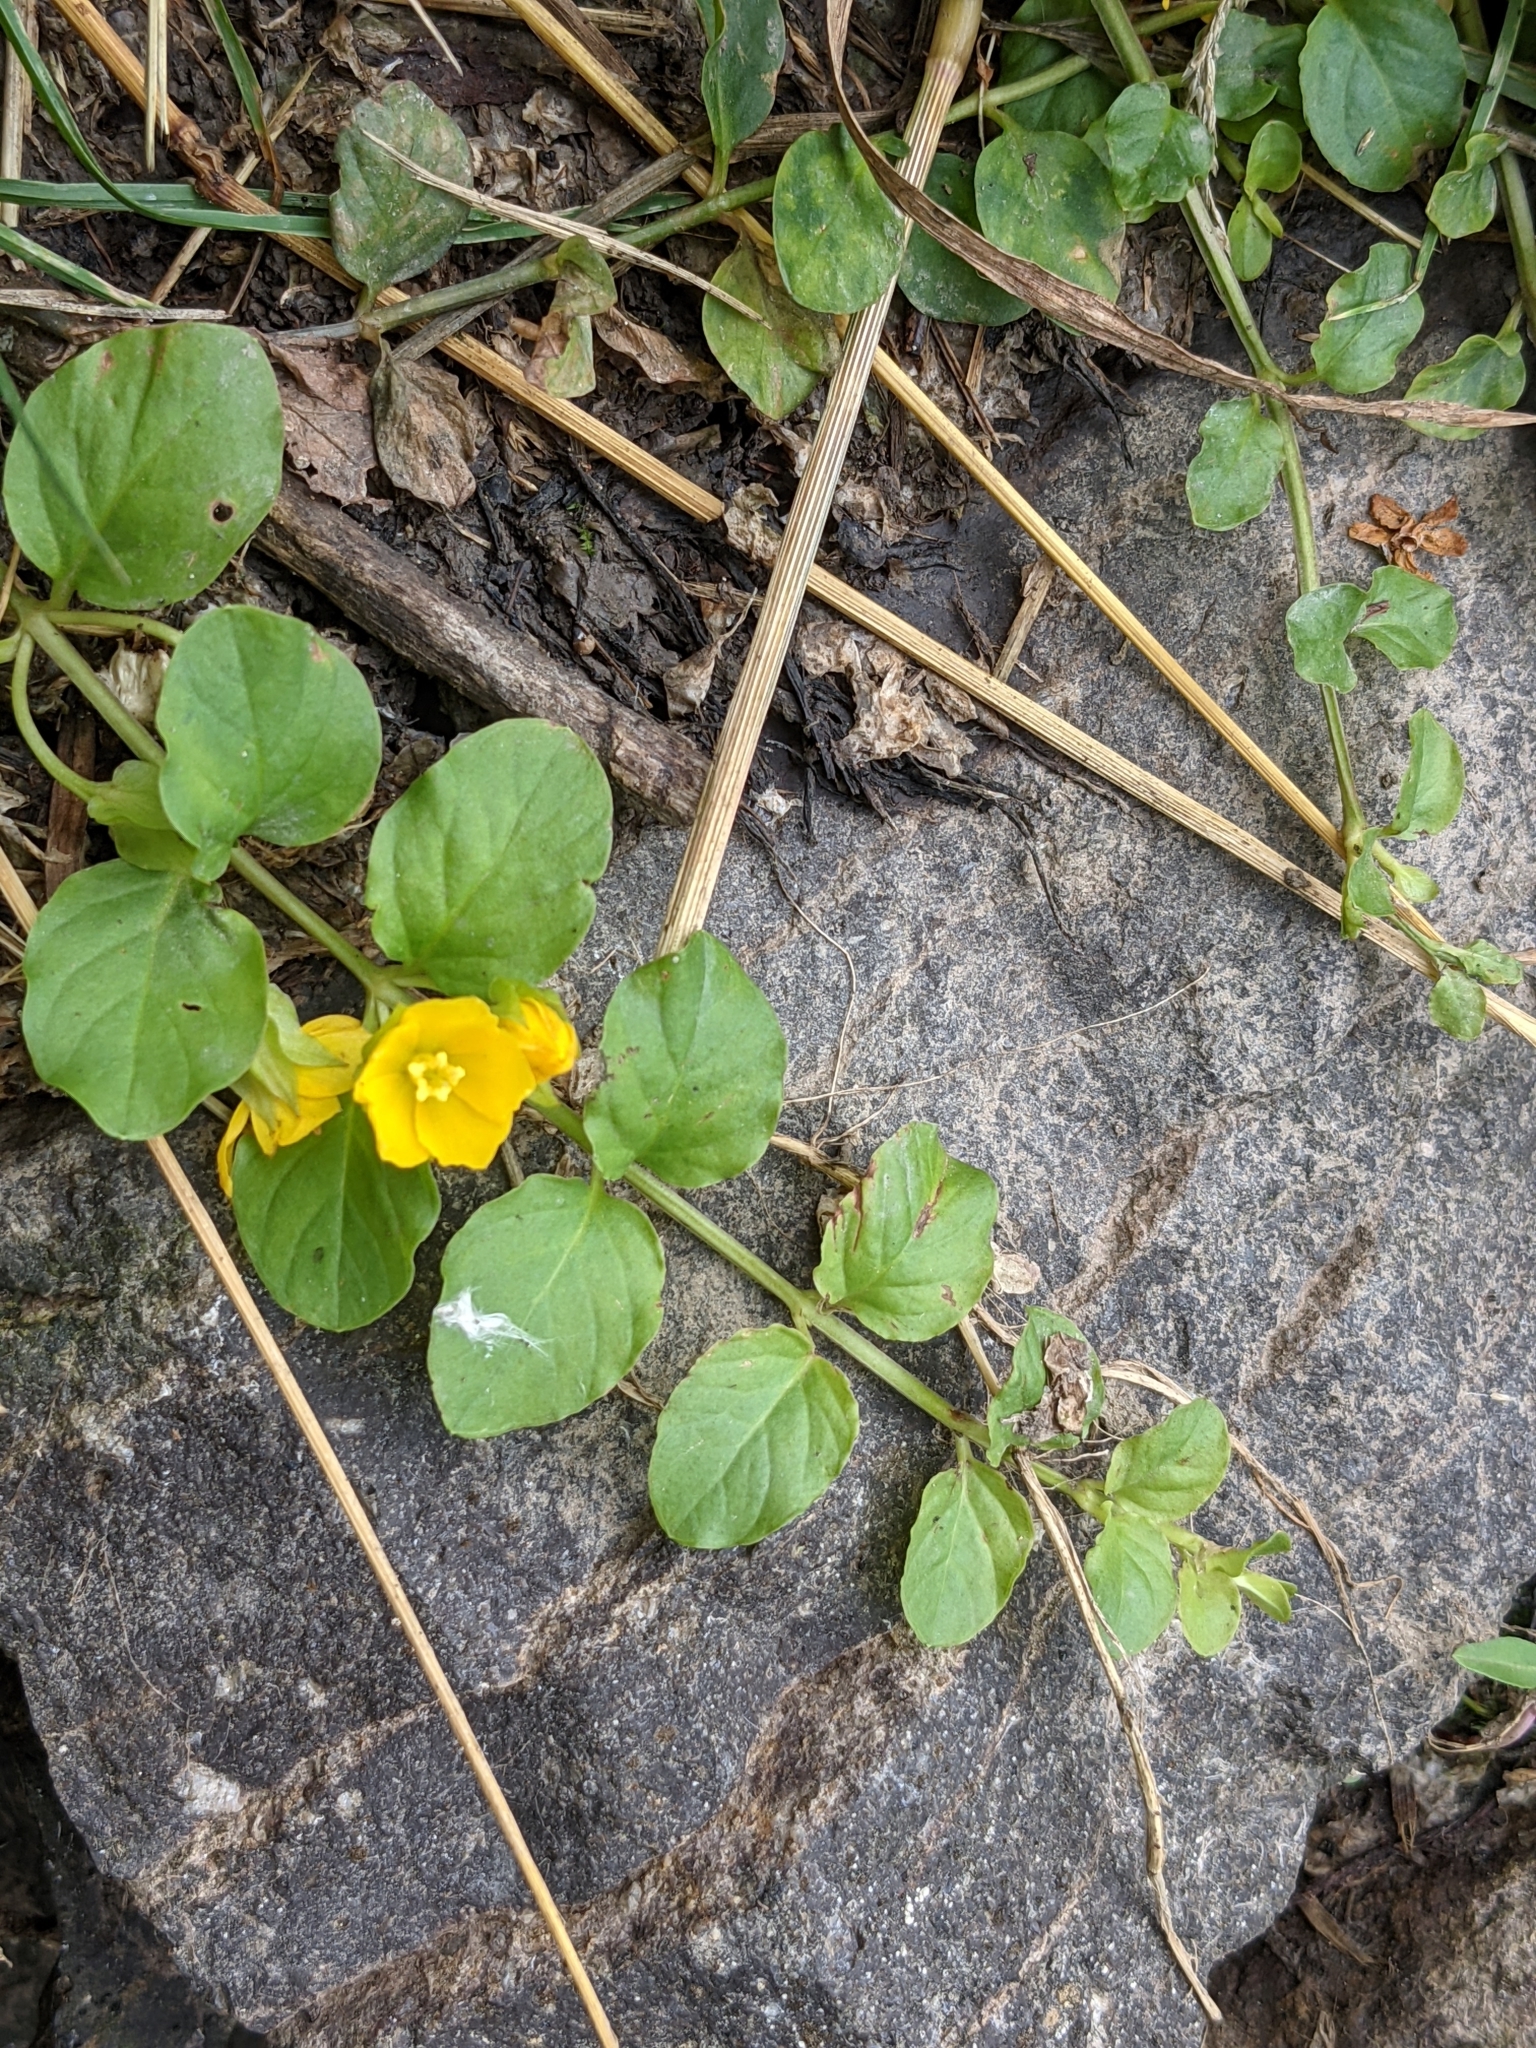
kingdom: Plantae
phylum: Tracheophyta
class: Magnoliopsida
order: Ericales
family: Primulaceae
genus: Lysimachia
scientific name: Lysimachia nummularia
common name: Moneywort
